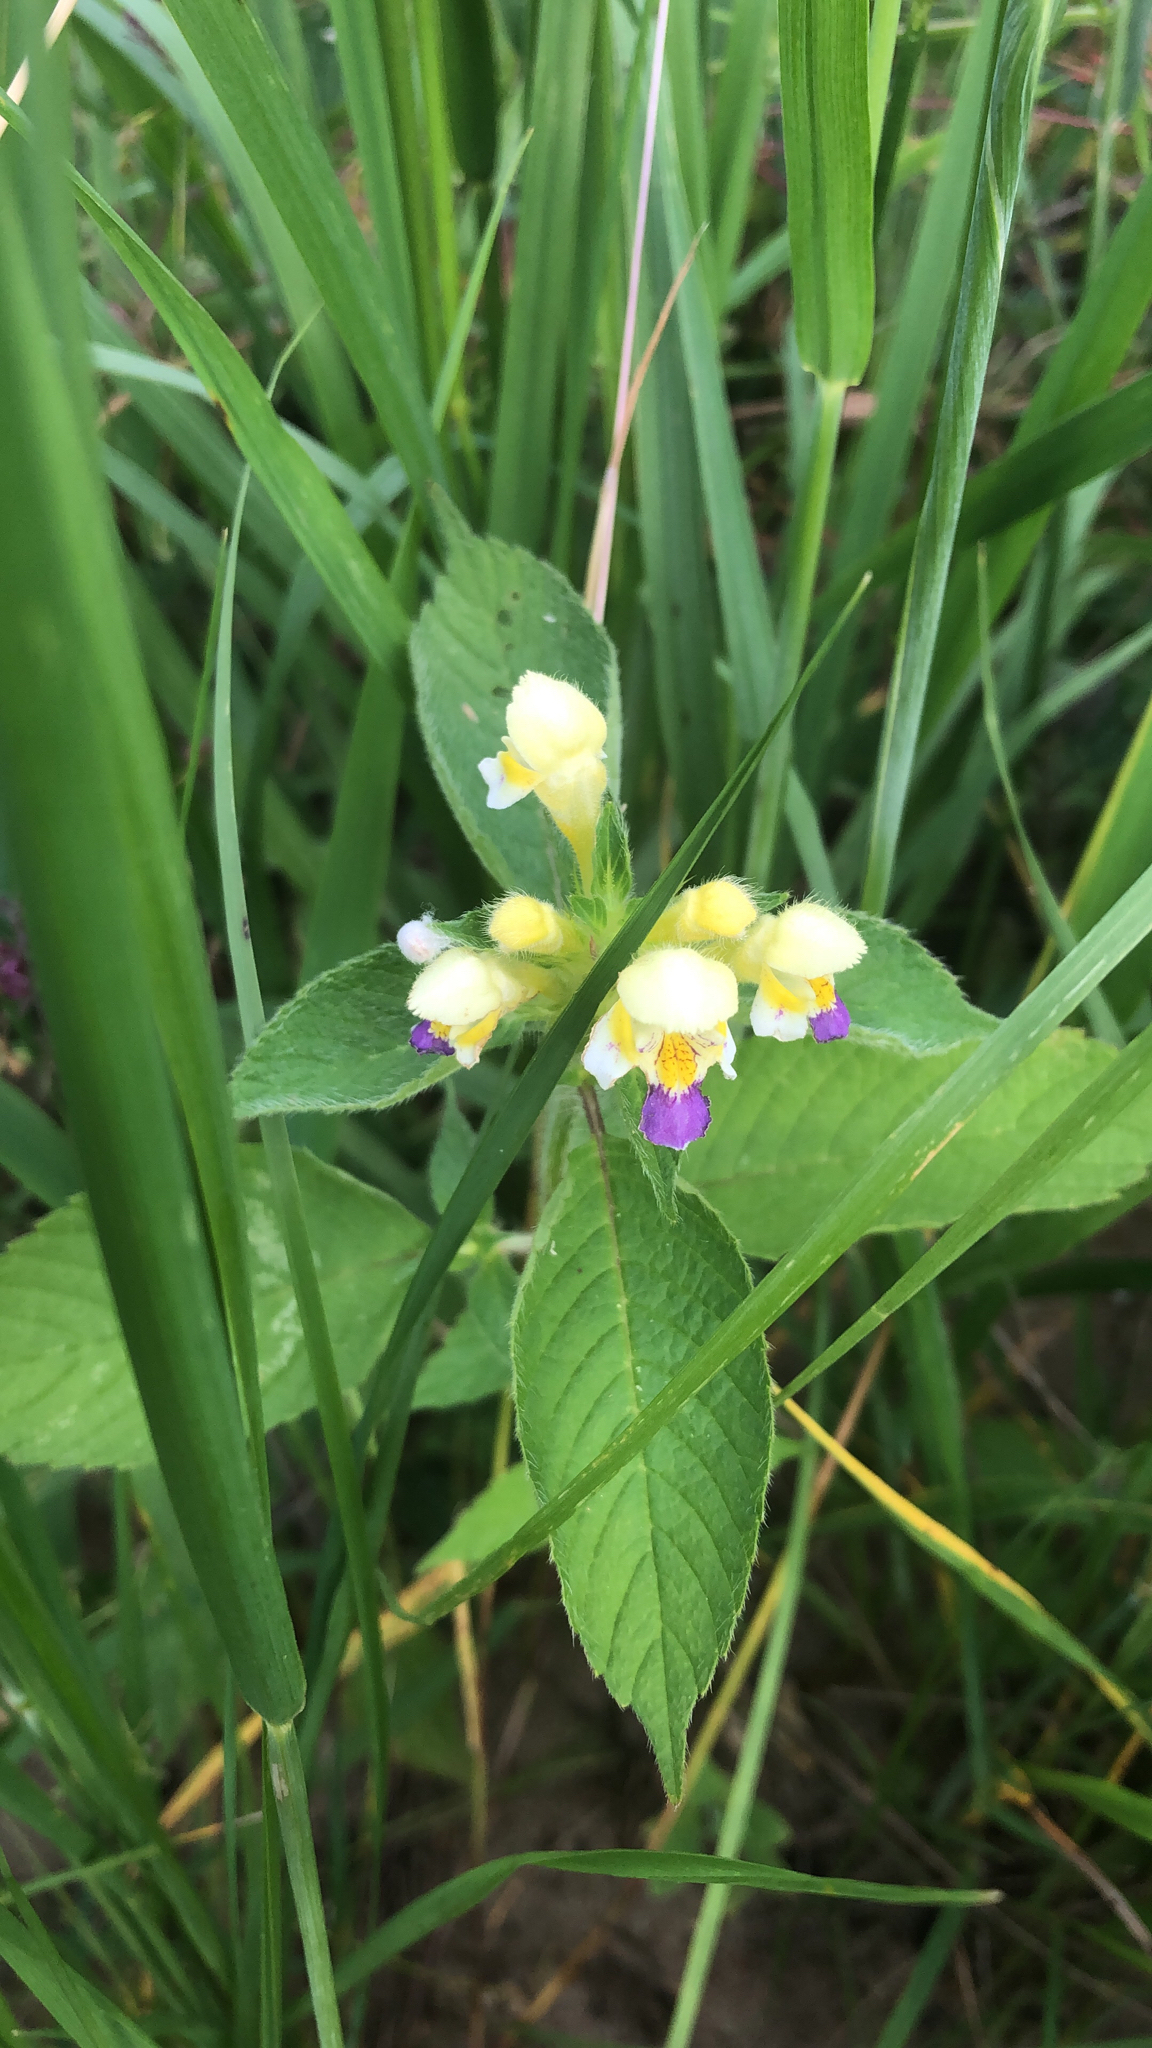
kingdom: Plantae
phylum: Tracheophyta
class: Magnoliopsida
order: Lamiales
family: Lamiaceae
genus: Galeopsis
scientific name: Galeopsis speciosa
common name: Large-flowered hemp-nettle
